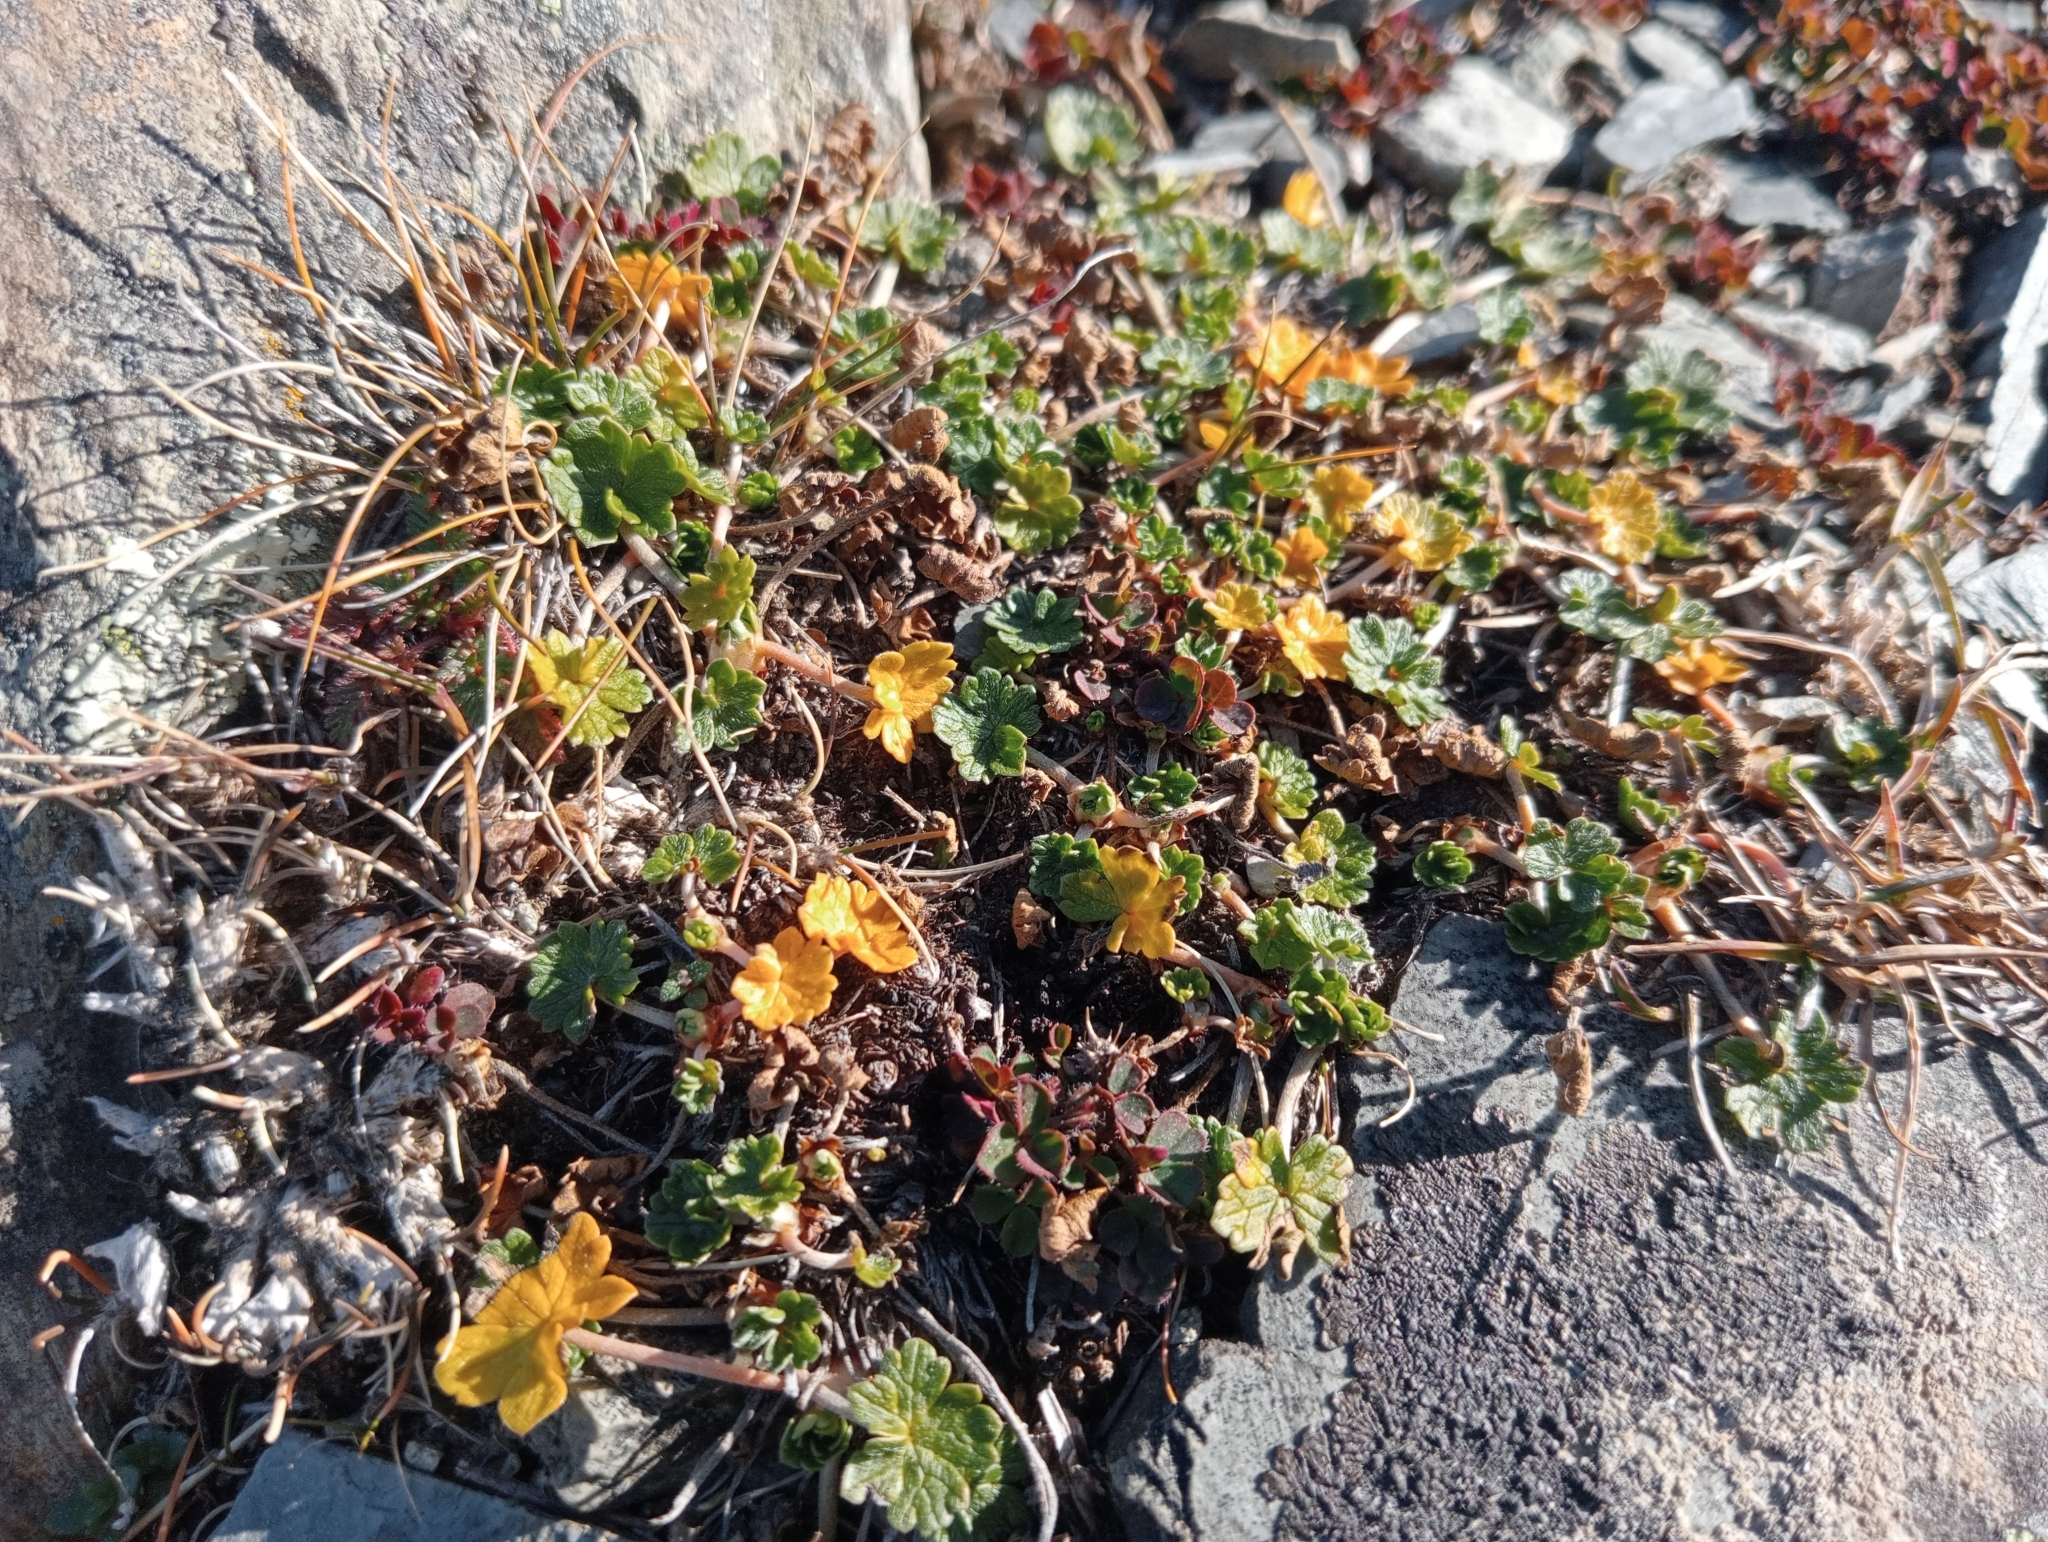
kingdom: Plantae
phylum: Tracheophyta
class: Magnoliopsida
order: Geraniales
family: Geraniaceae
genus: Geranium
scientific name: Geranium brevicaule
